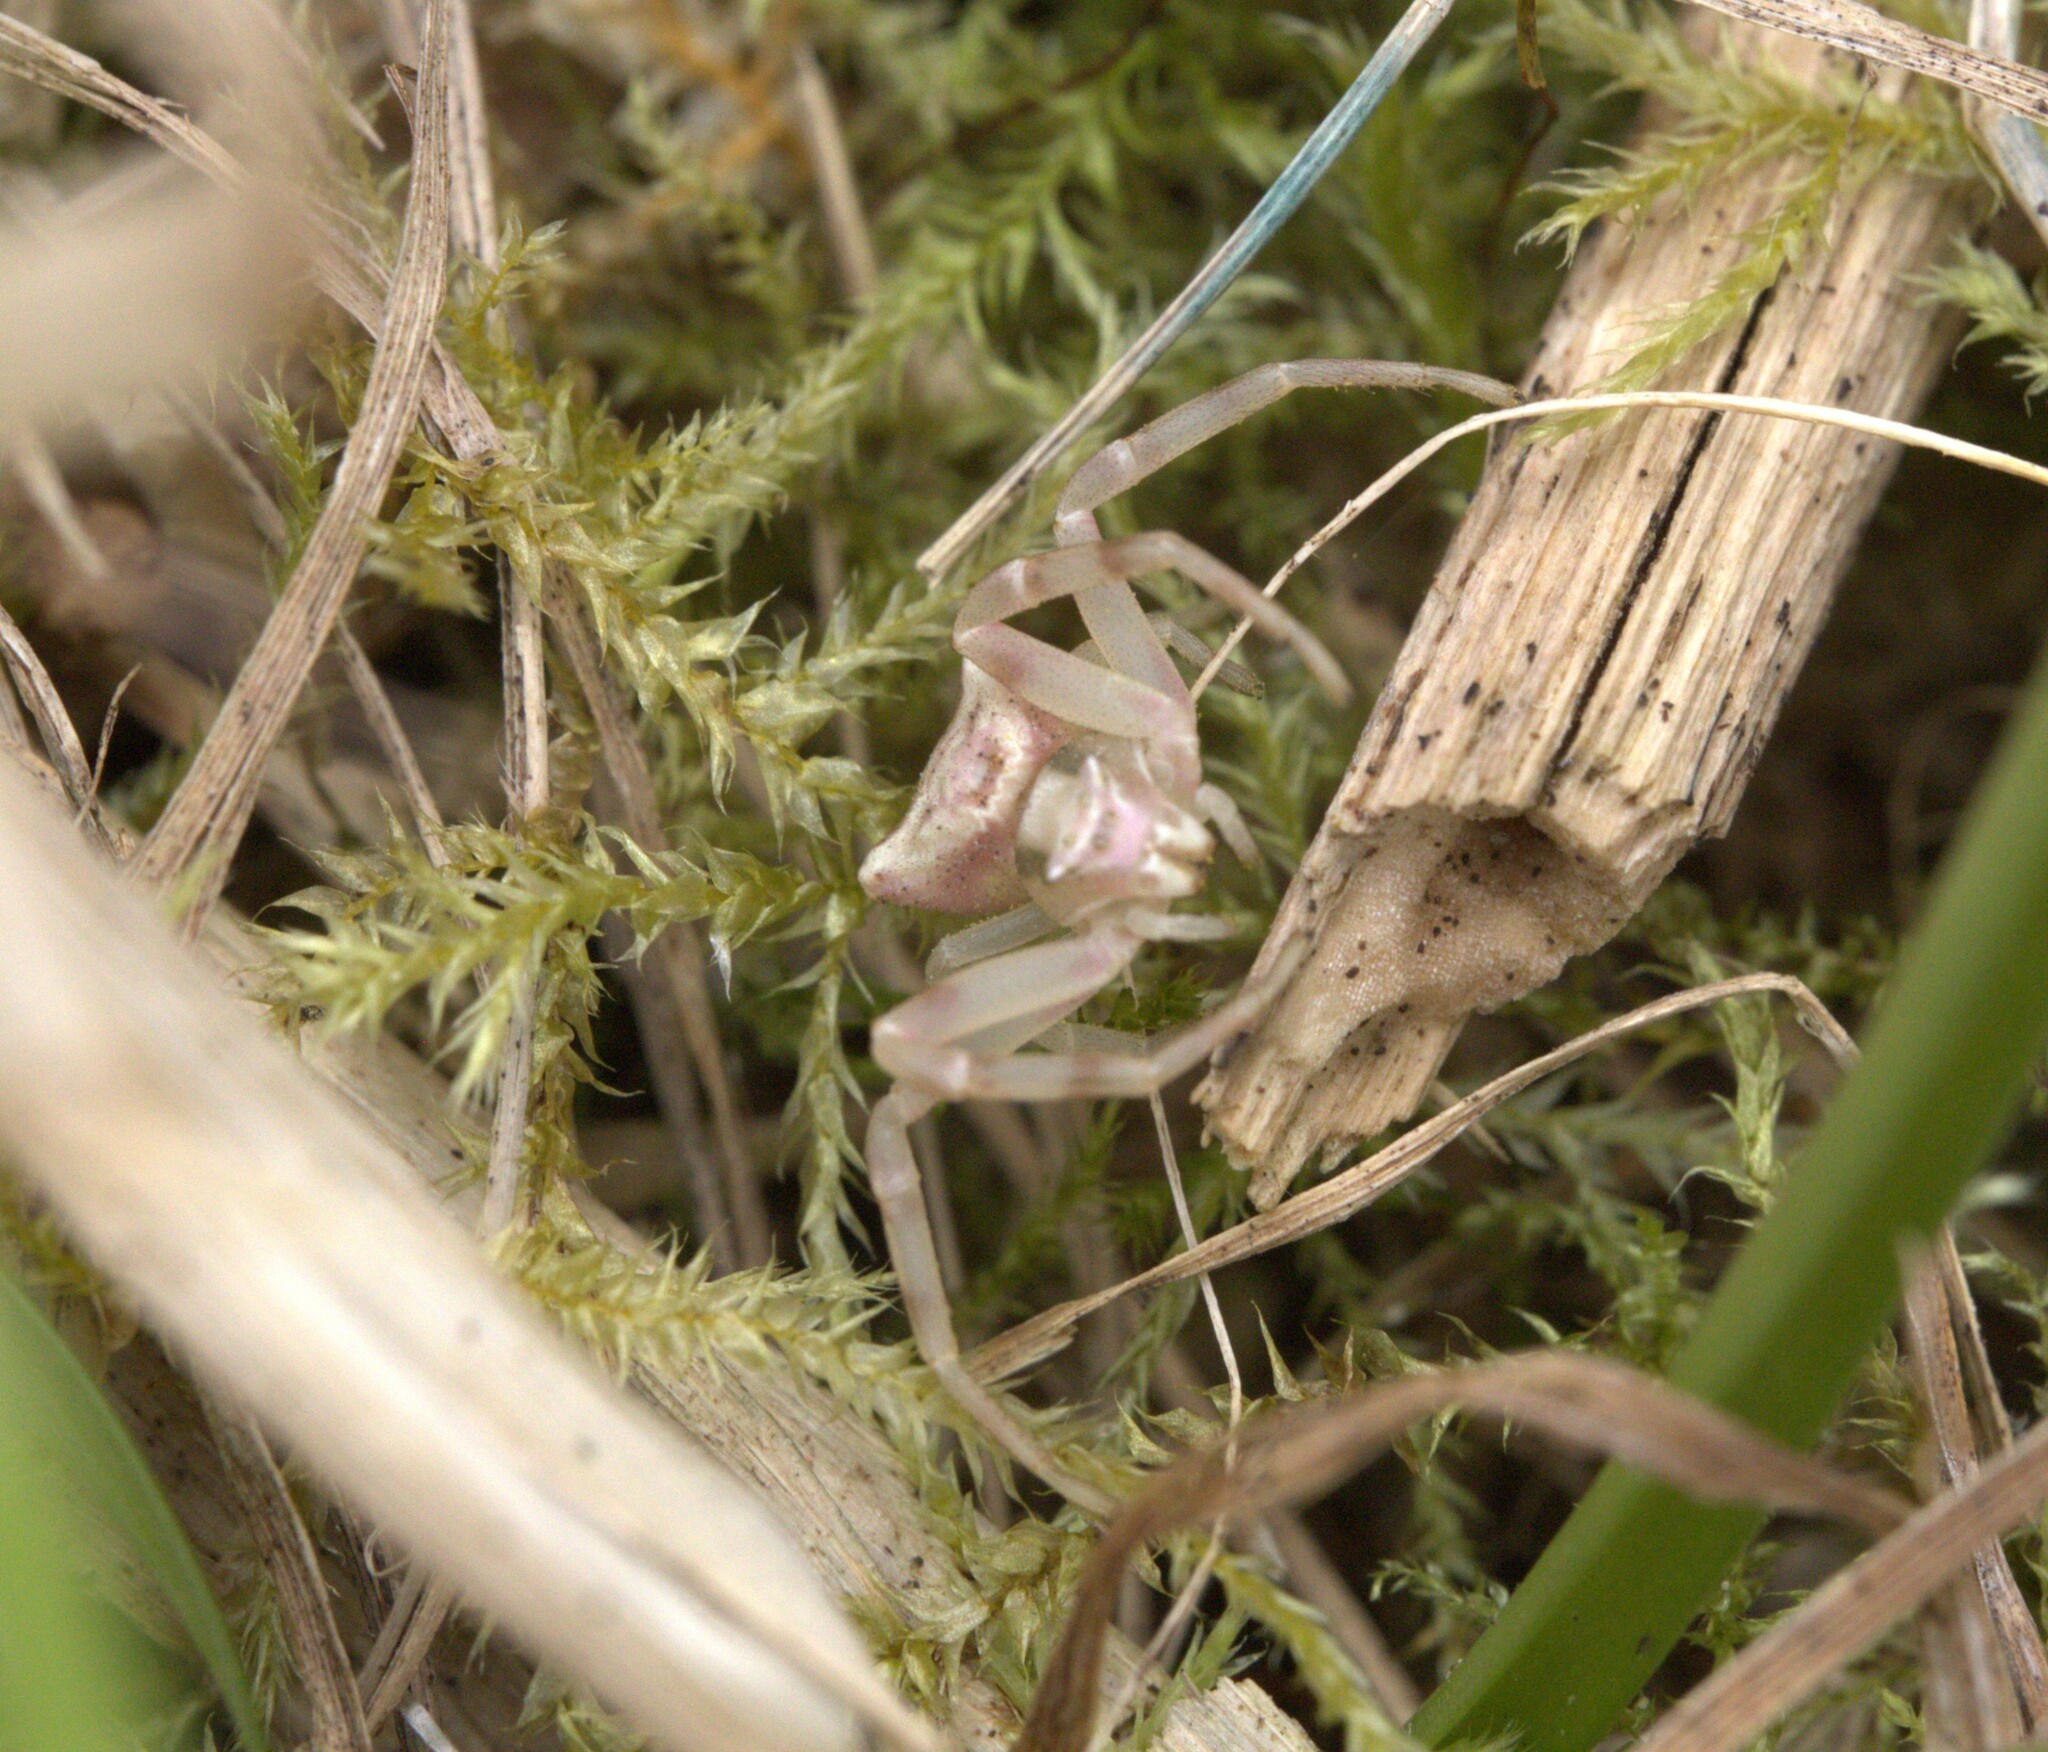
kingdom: Animalia
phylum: Arthropoda
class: Arachnida
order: Araneae
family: Thomisidae
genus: Thomisus
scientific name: Thomisus onustus
